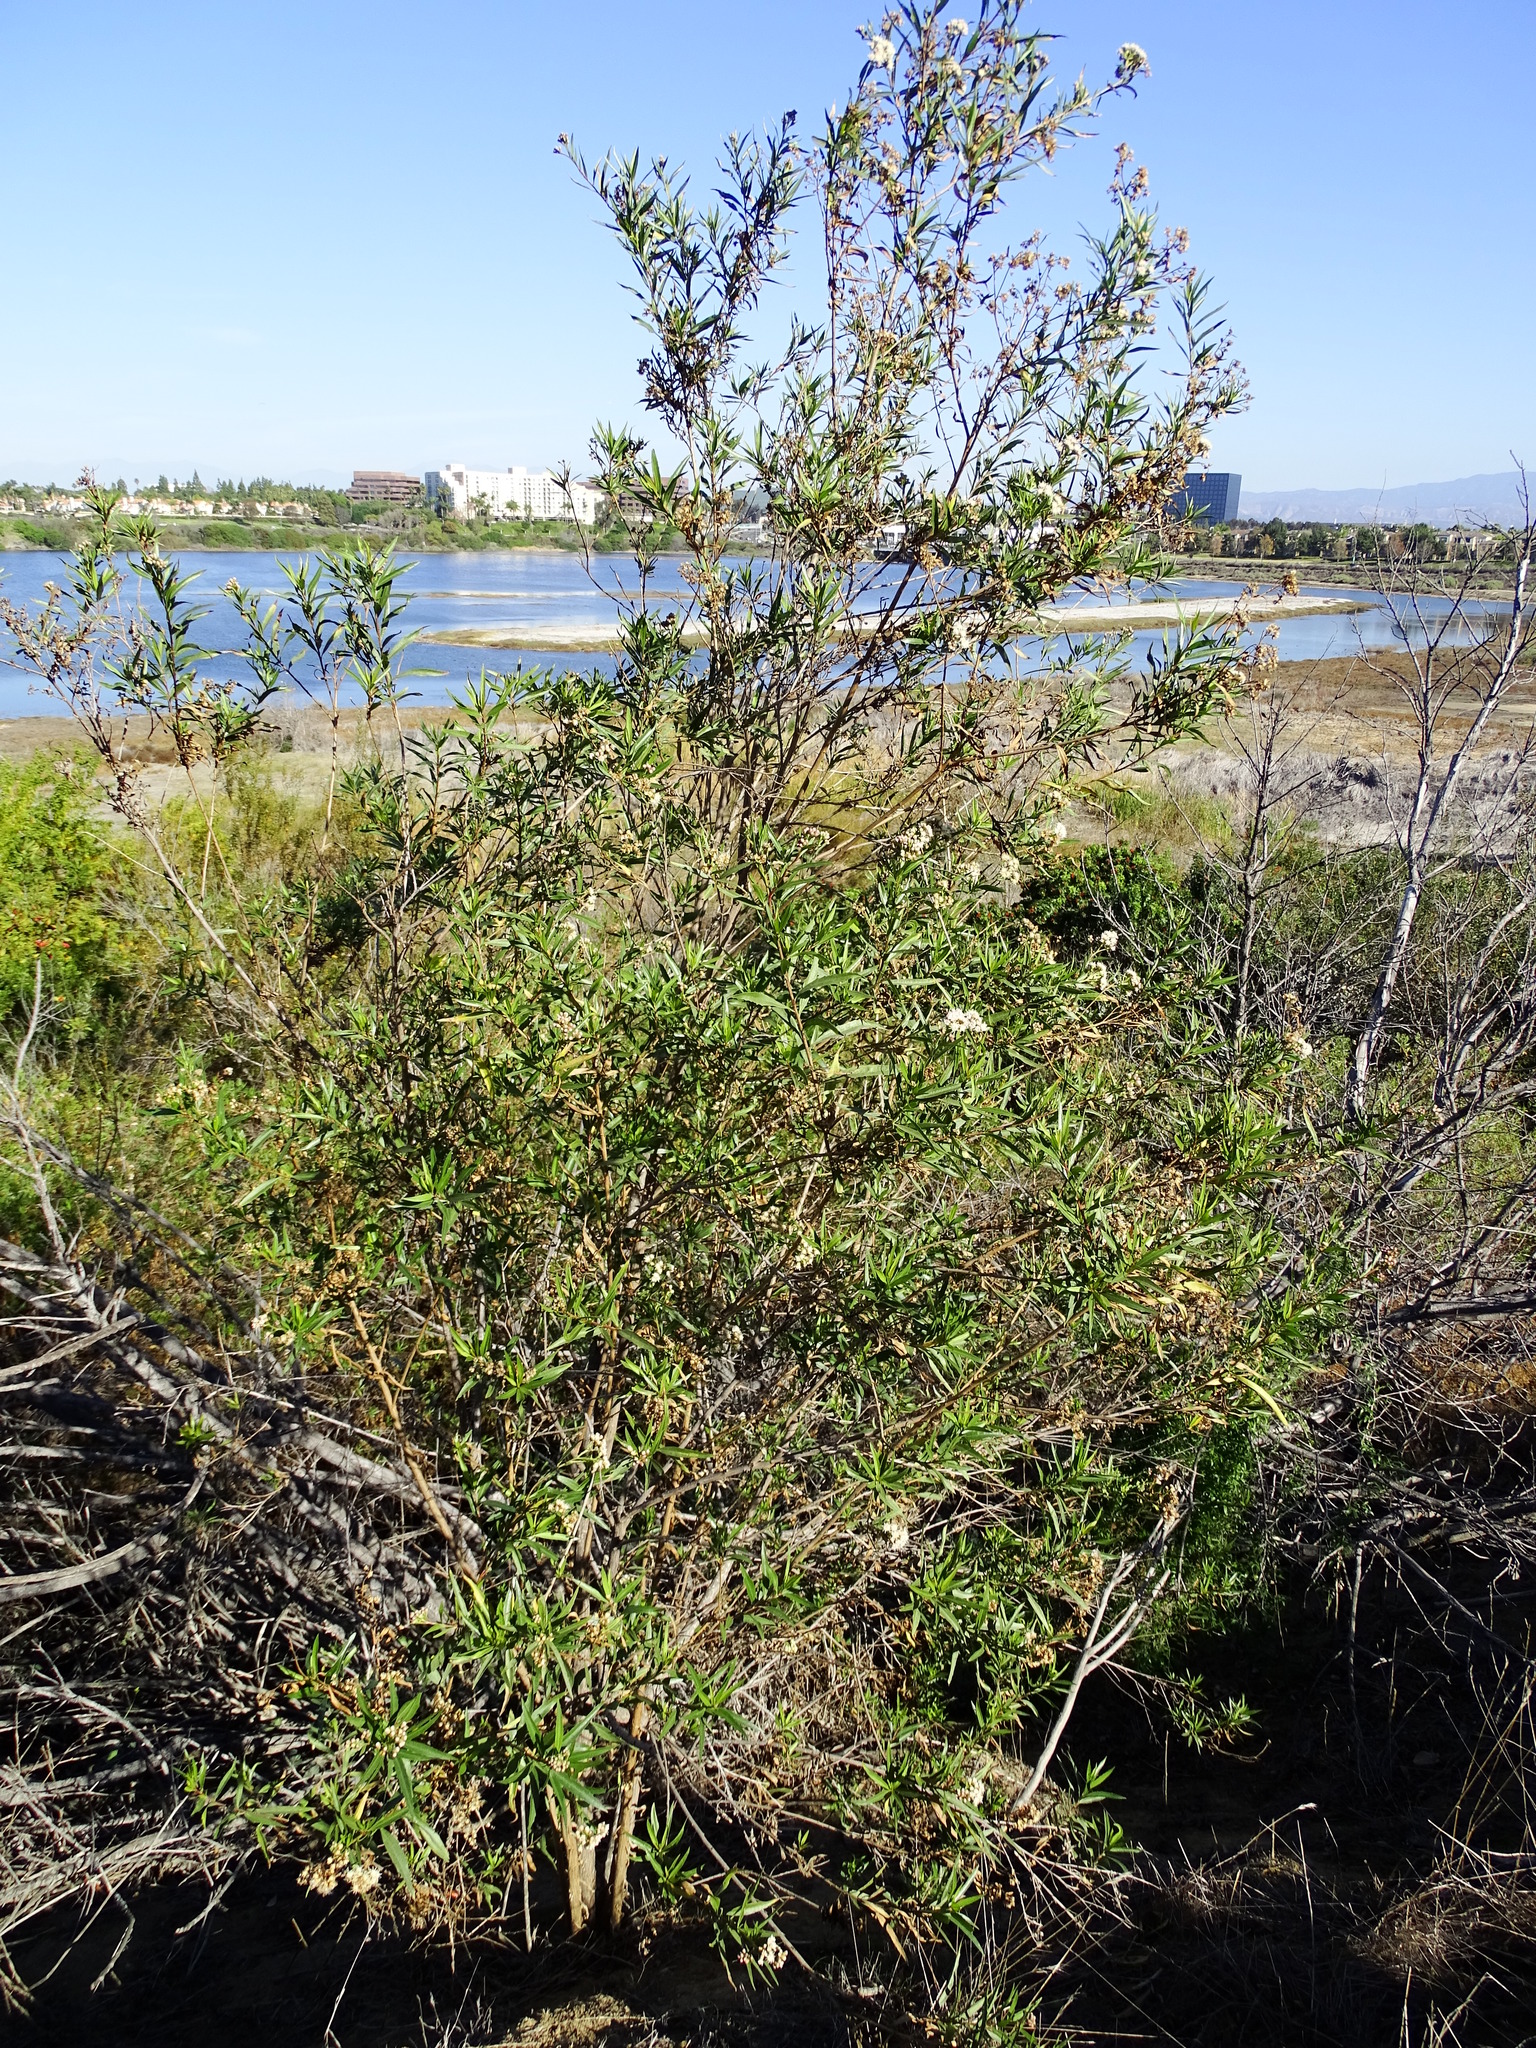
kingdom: Plantae
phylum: Tracheophyta
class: Magnoliopsida
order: Asterales
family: Asteraceae
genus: Baccharis
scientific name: Baccharis salicifolia
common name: Sticky baccharis
